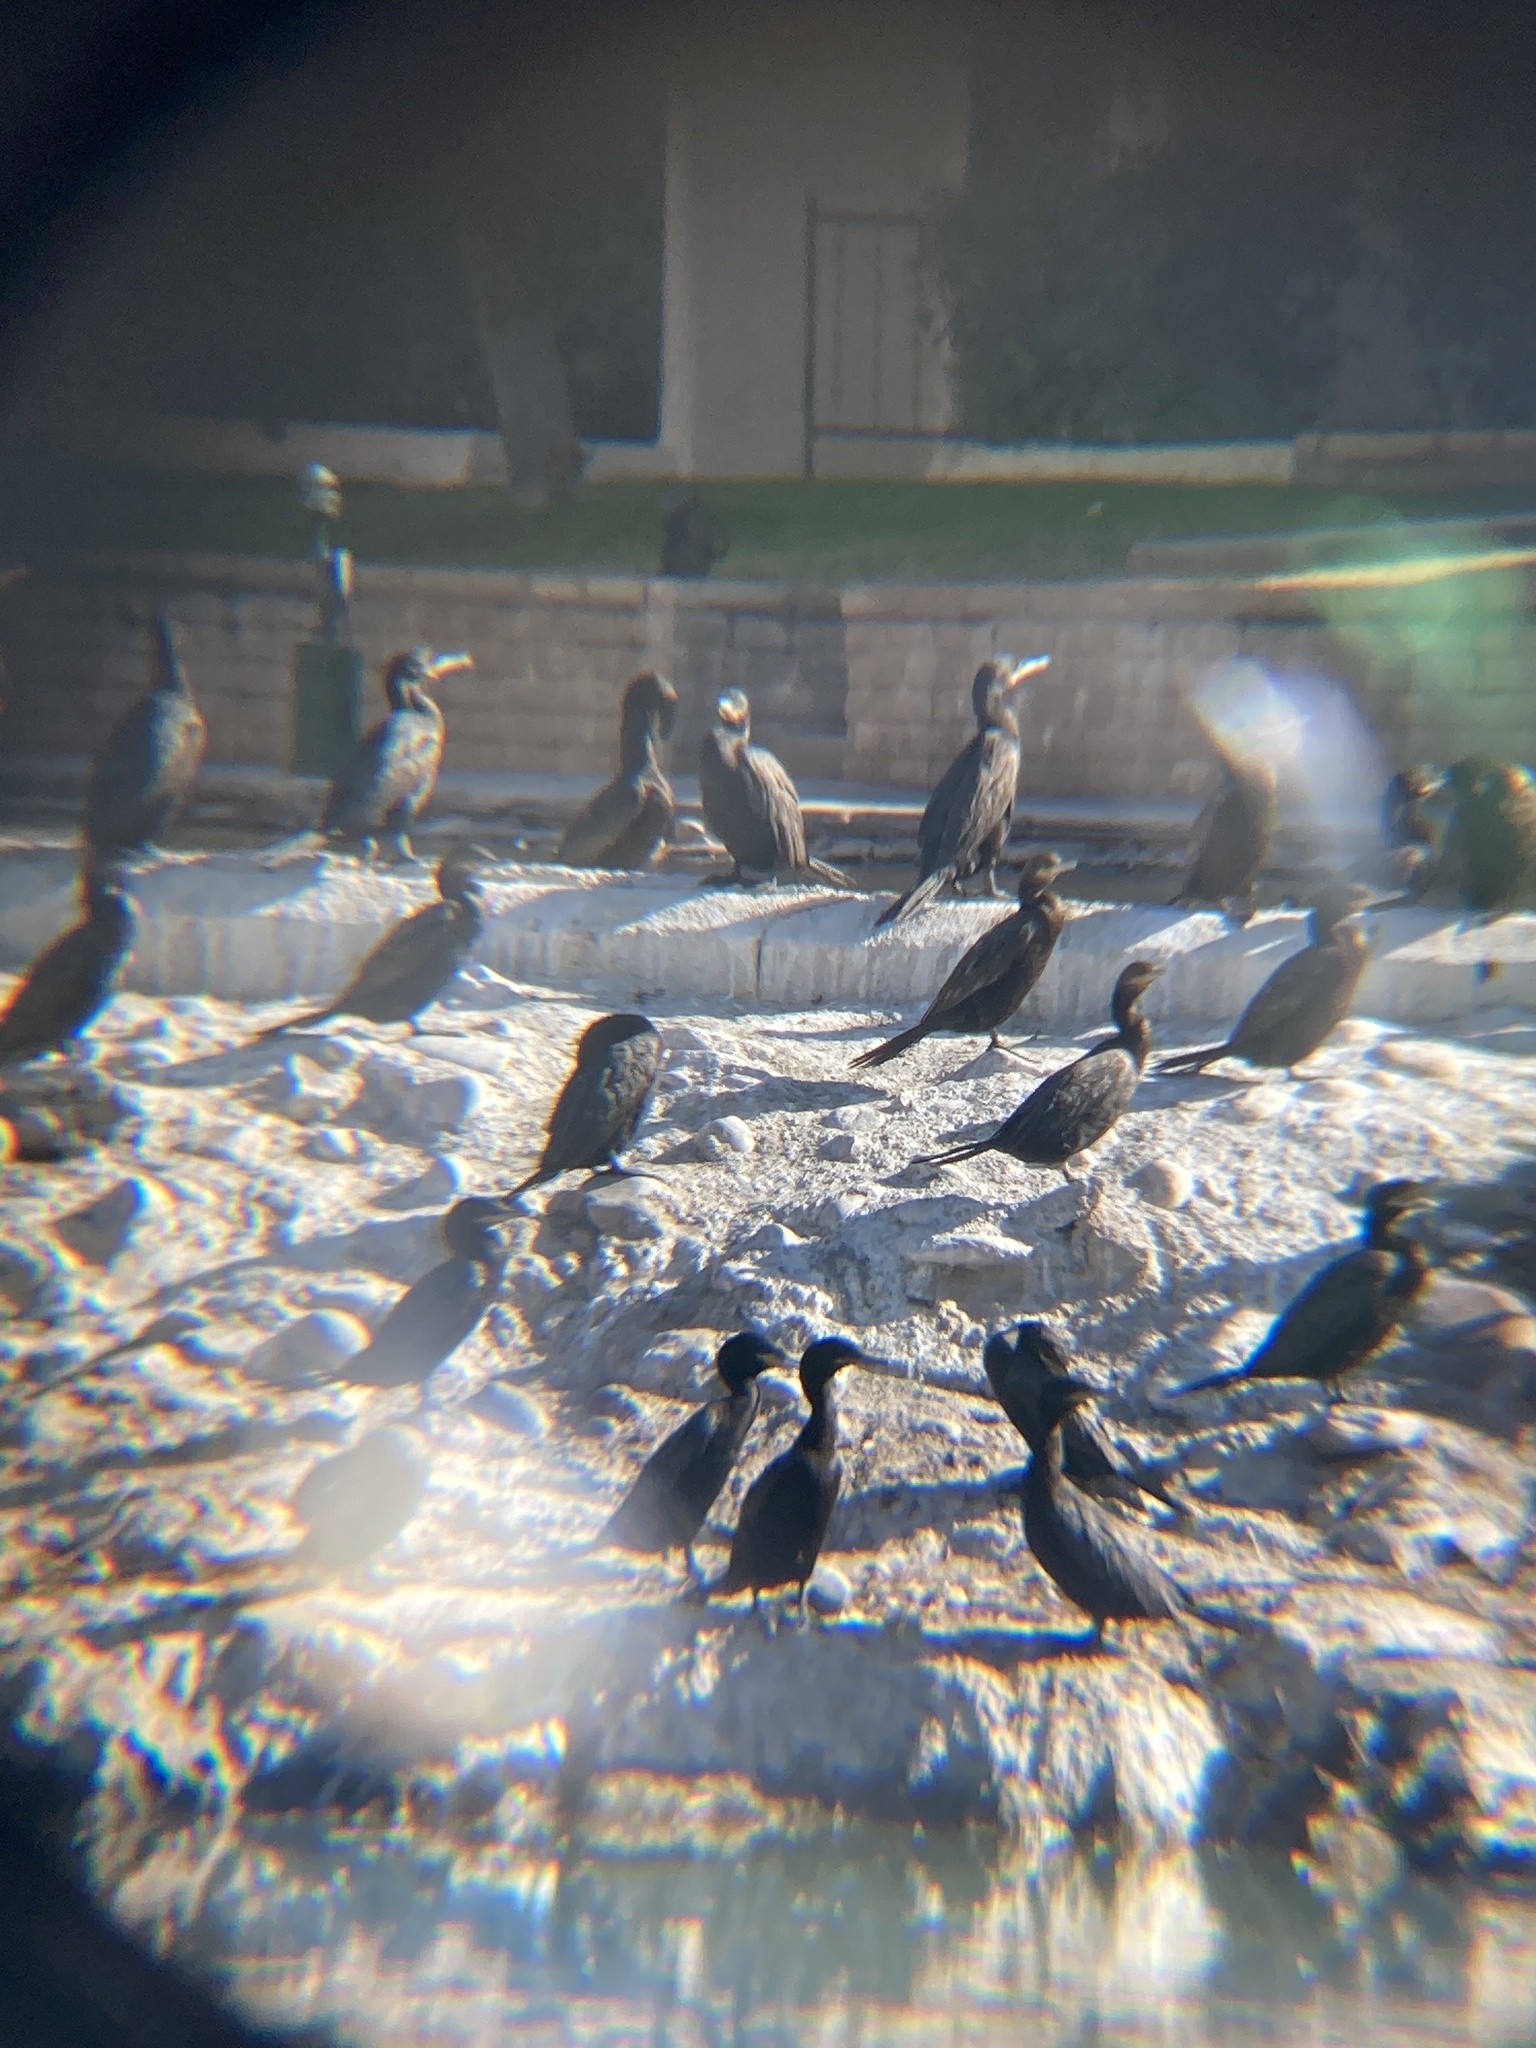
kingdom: Animalia
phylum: Chordata
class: Aves
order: Suliformes
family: Phalacrocoracidae
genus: Phalacrocorax
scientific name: Phalacrocorax brasilianus
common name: Neotropic cormorant
